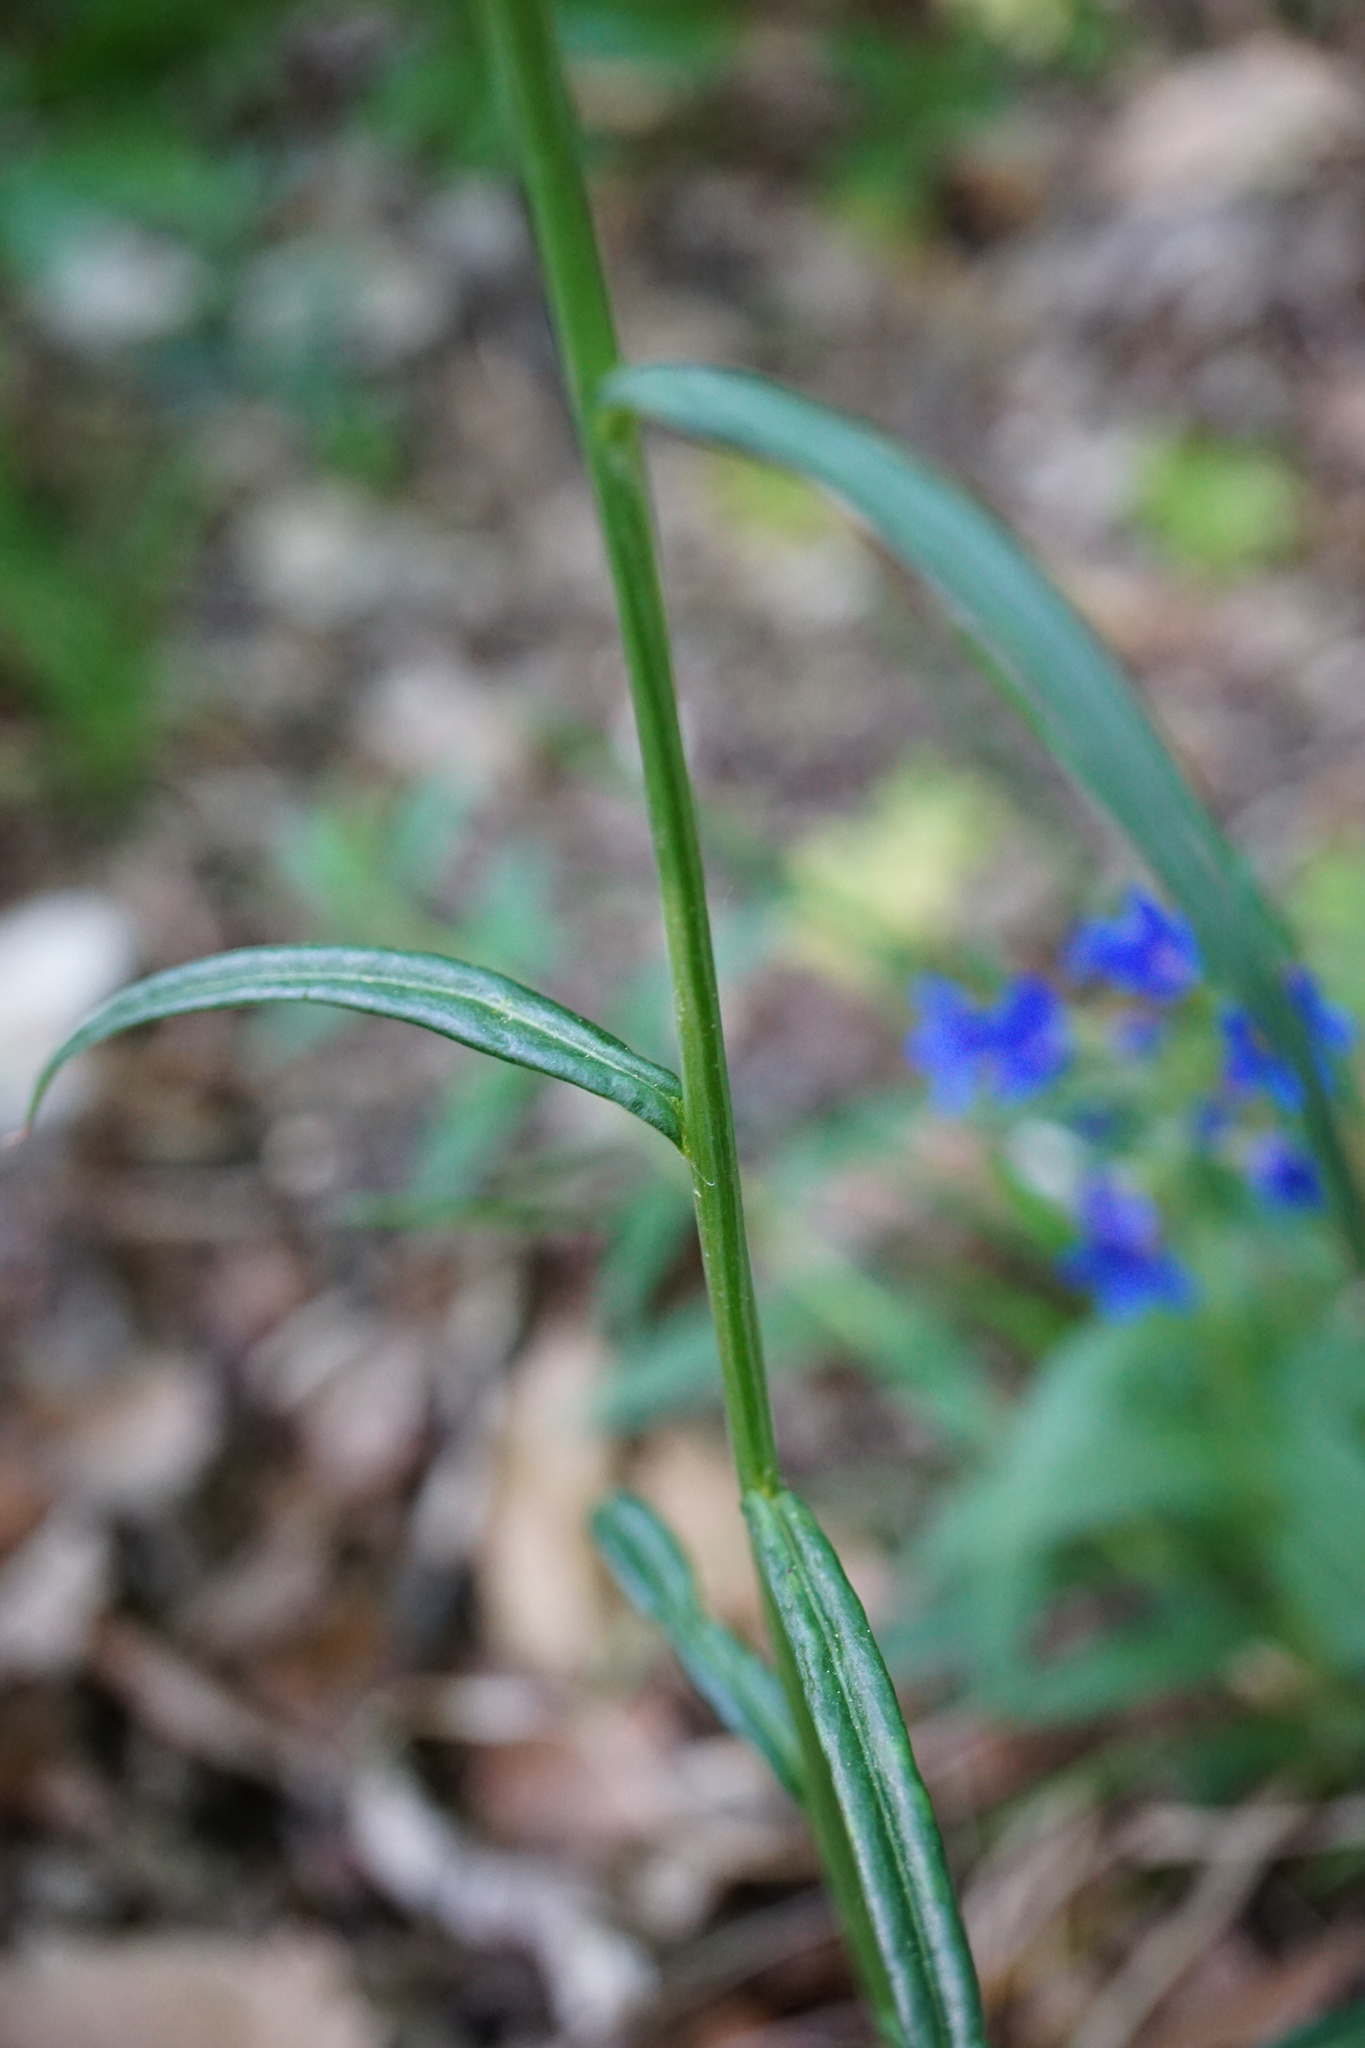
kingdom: Plantae
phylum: Tracheophyta
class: Magnoliopsida
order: Asterales
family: Campanulaceae
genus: Campanula
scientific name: Campanula persicifolia
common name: Peach-leaved bellflower
